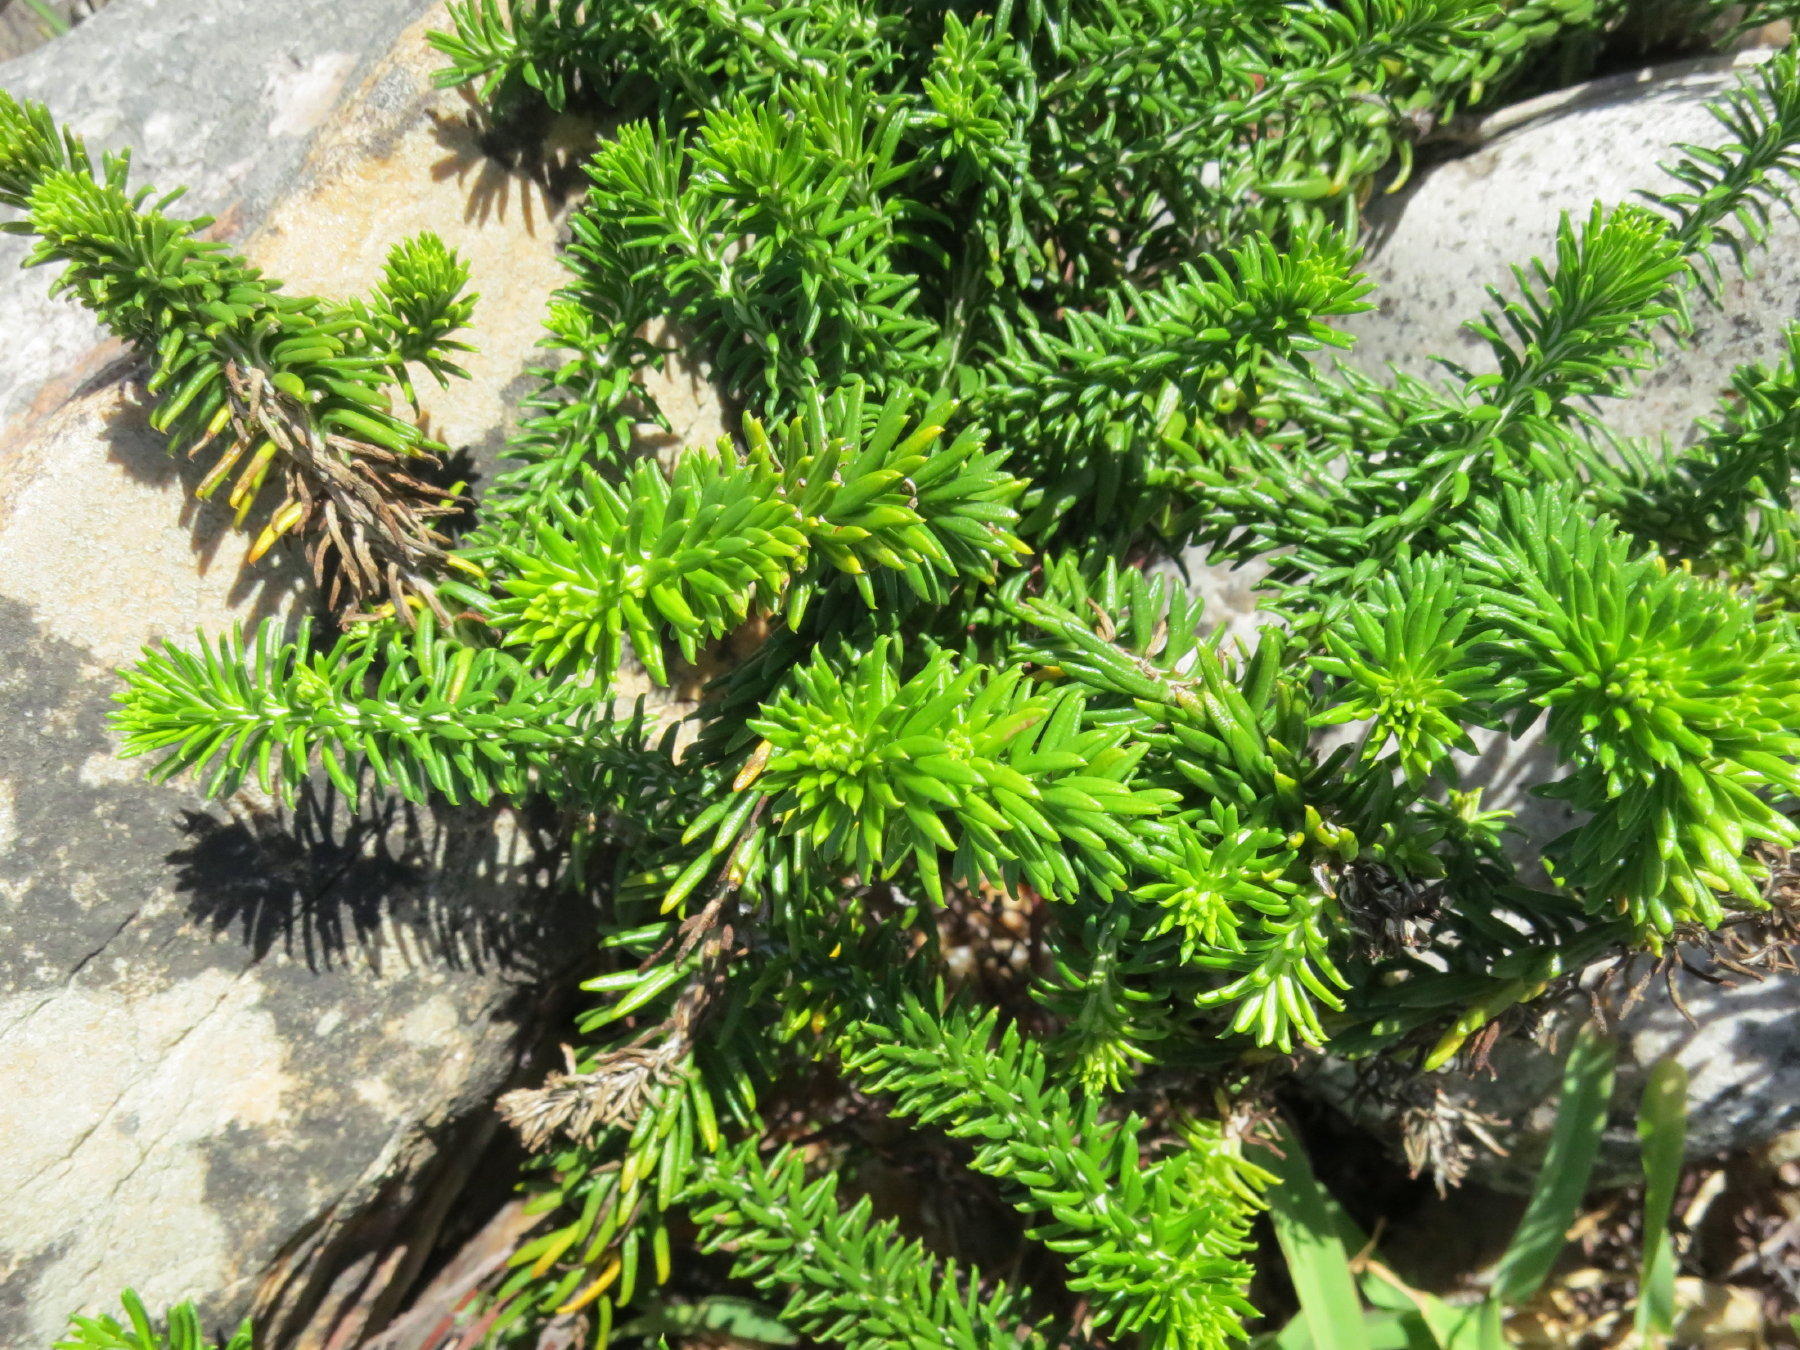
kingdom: Plantae
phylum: Tracheophyta
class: Magnoliopsida
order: Asterales
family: Asteraceae
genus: Helichrysum
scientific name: Helichrysum teretifolium
